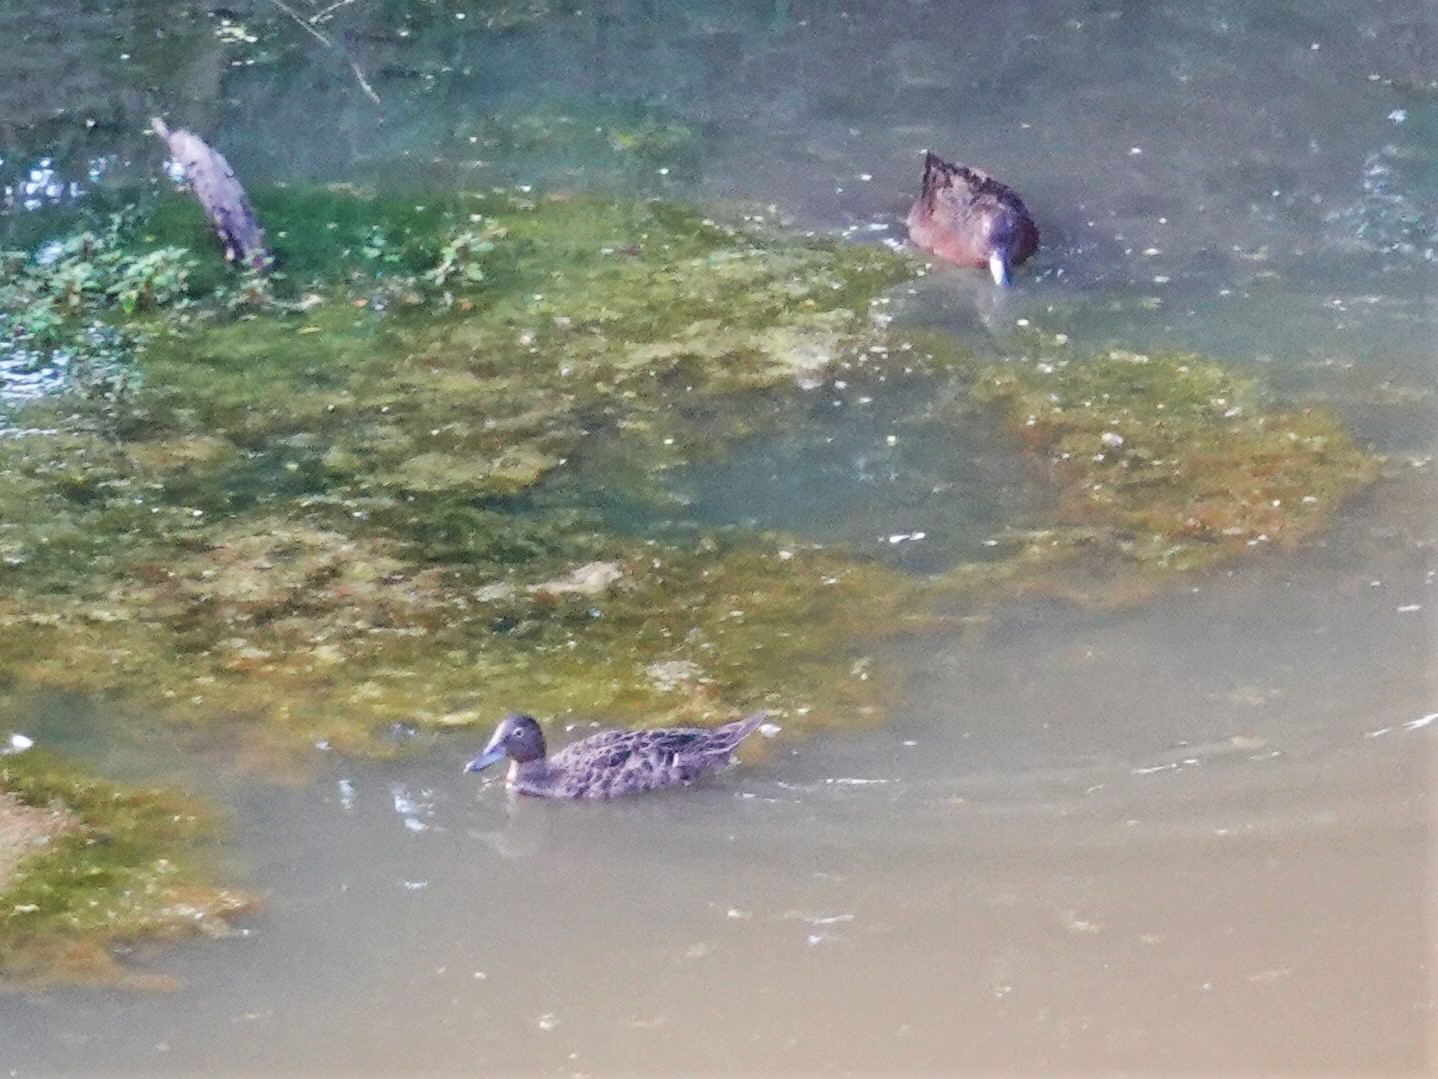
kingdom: Animalia
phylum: Chordata
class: Aves
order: Anseriformes
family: Anatidae
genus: Anas
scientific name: Anas chlorotis
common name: Brown teal
